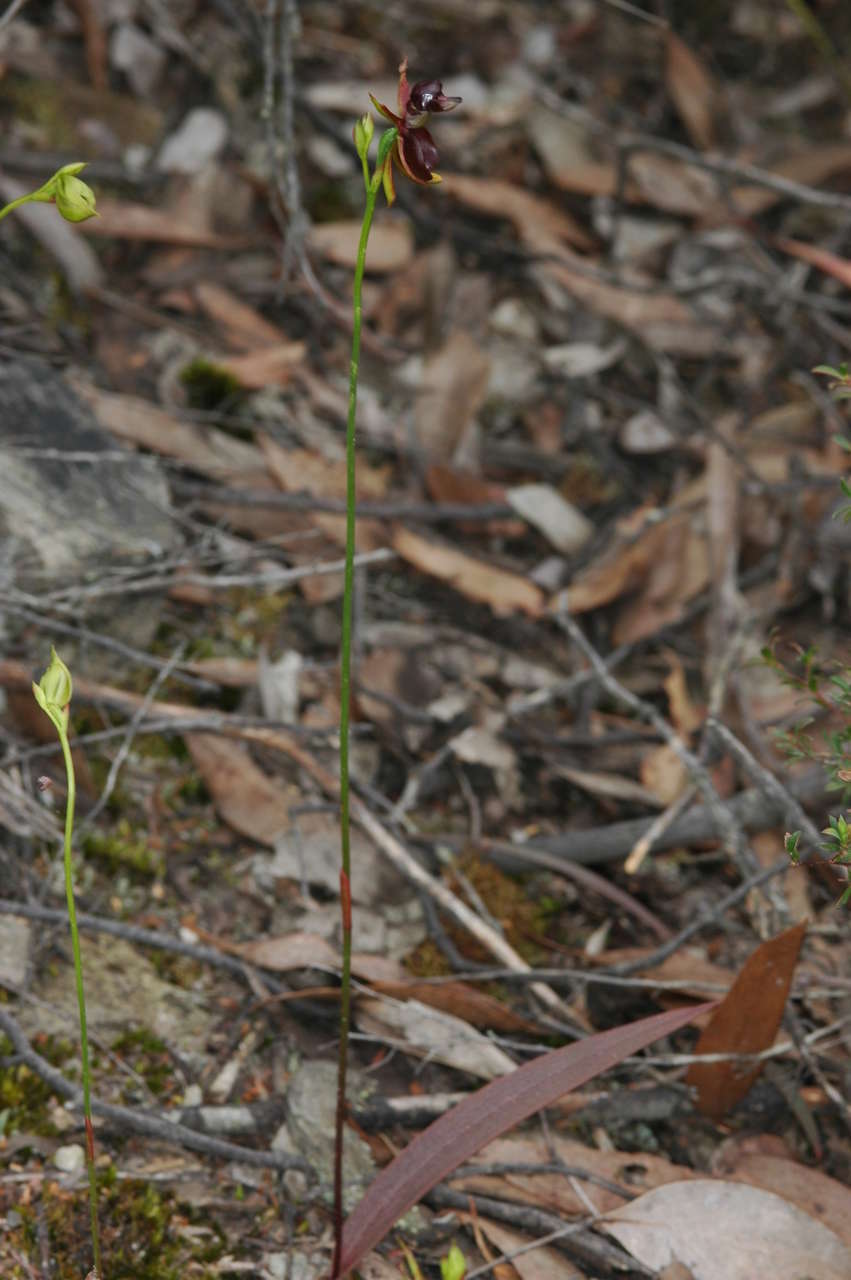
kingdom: Plantae
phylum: Tracheophyta
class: Liliopsida
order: Asparagales
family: Orchidaceae
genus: Caleana
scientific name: Caleana major
